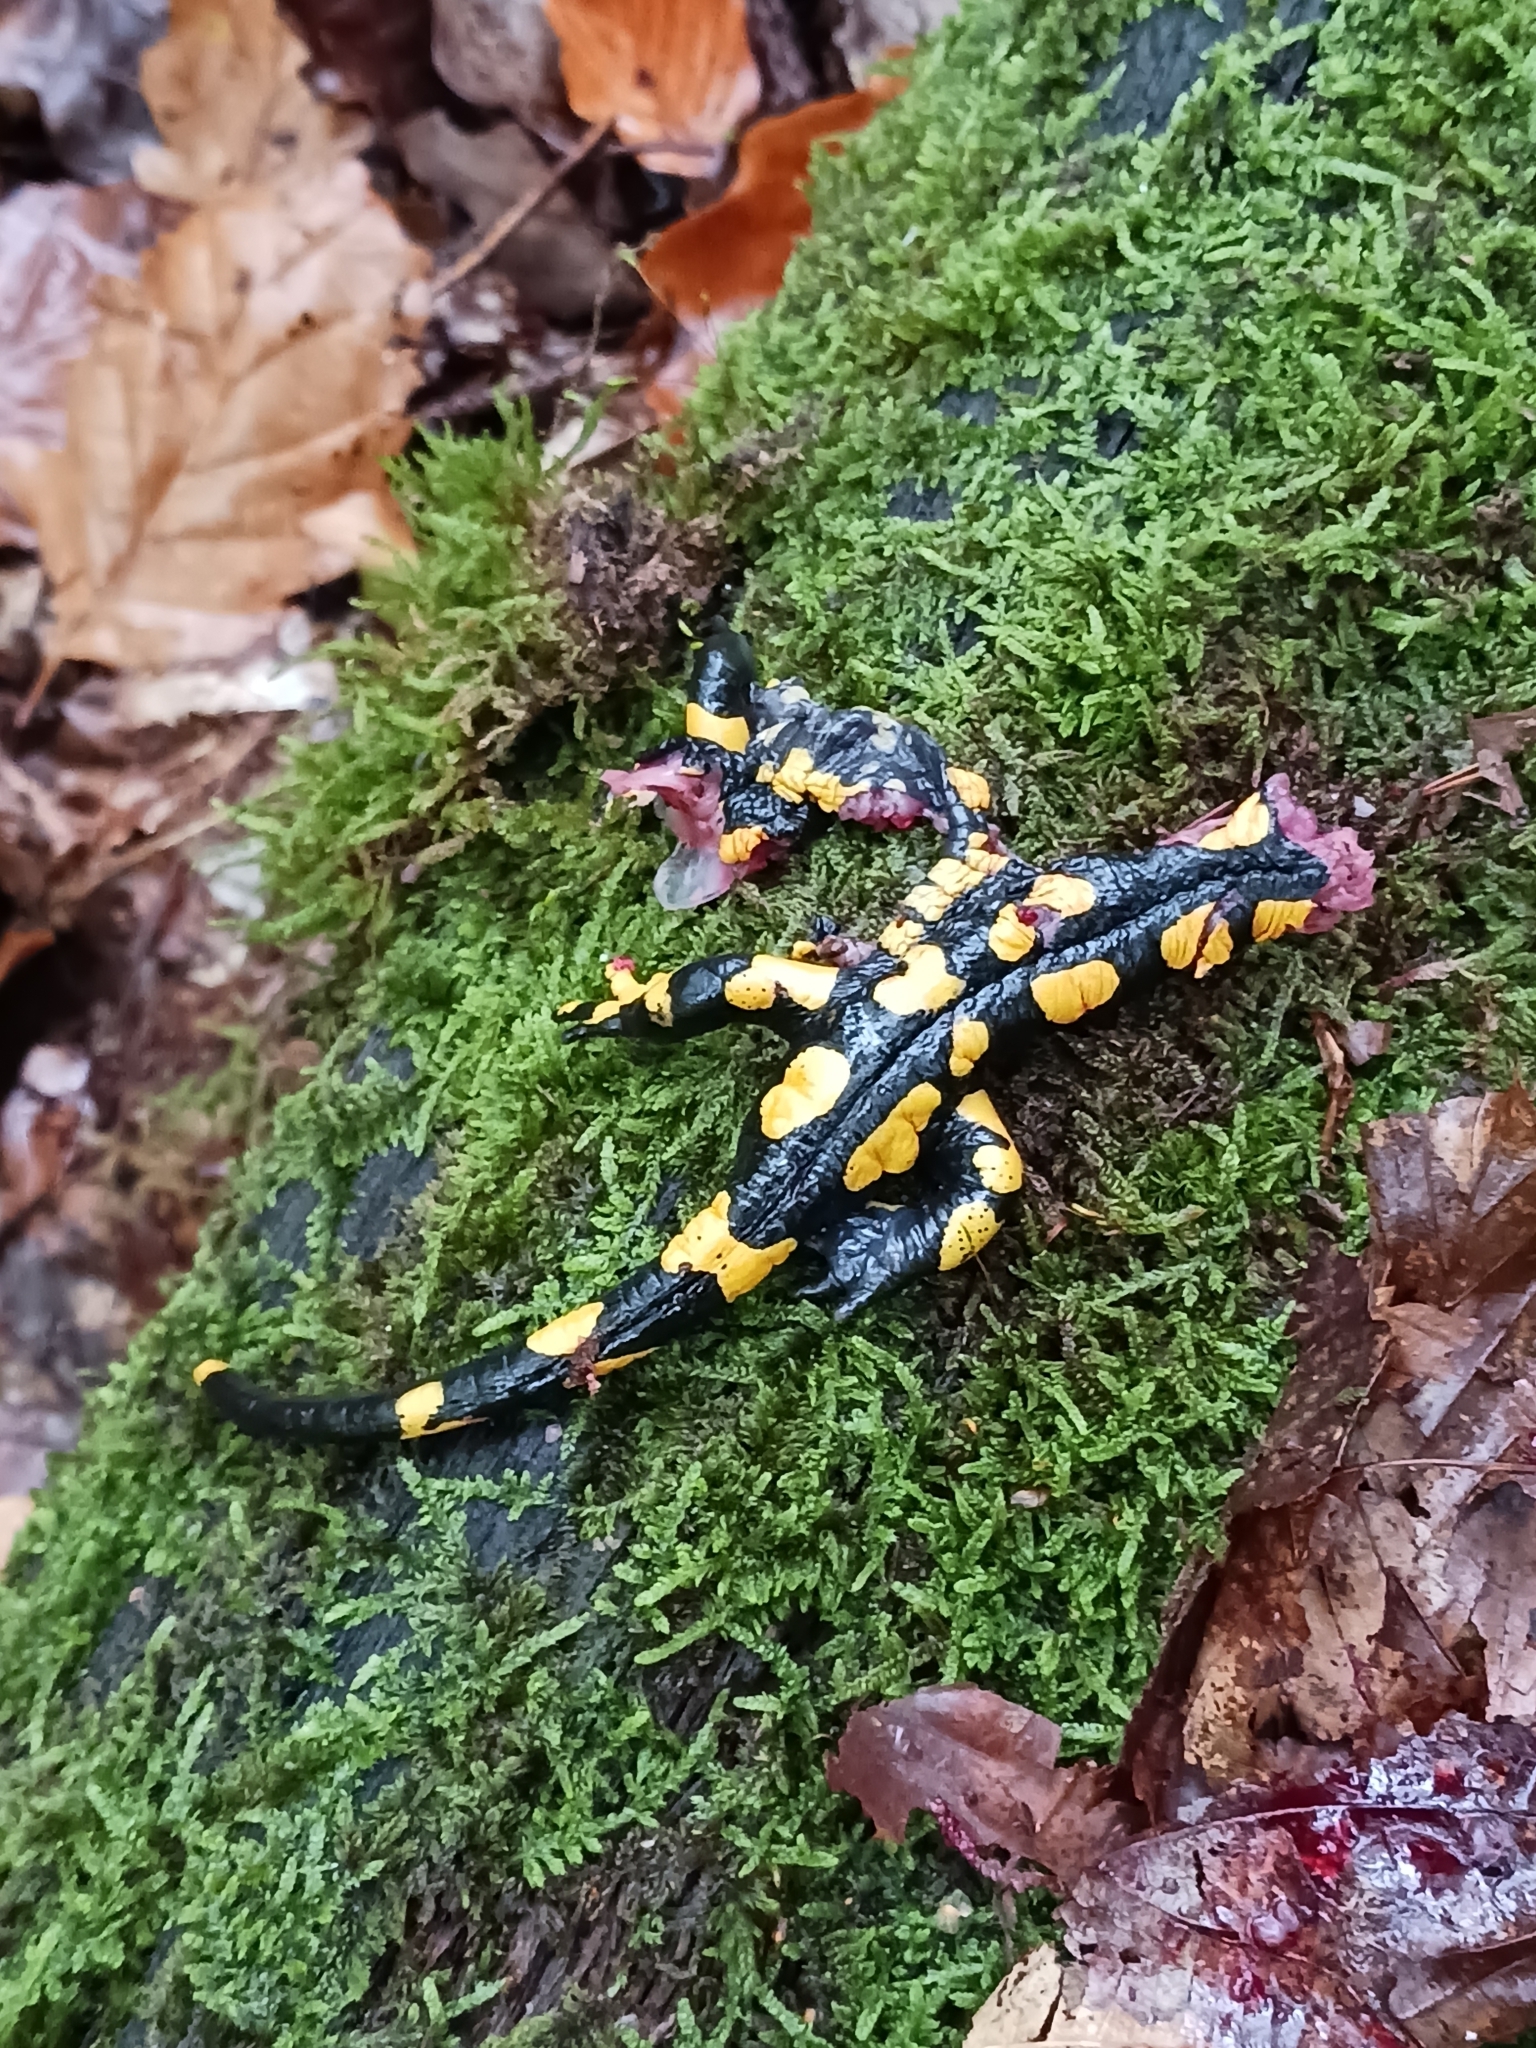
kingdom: Animalia
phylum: Chordata
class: Amphibia
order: Caudata
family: Salamandridae
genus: Salamandra
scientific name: Salamandra salamandra
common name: Fire salamander
